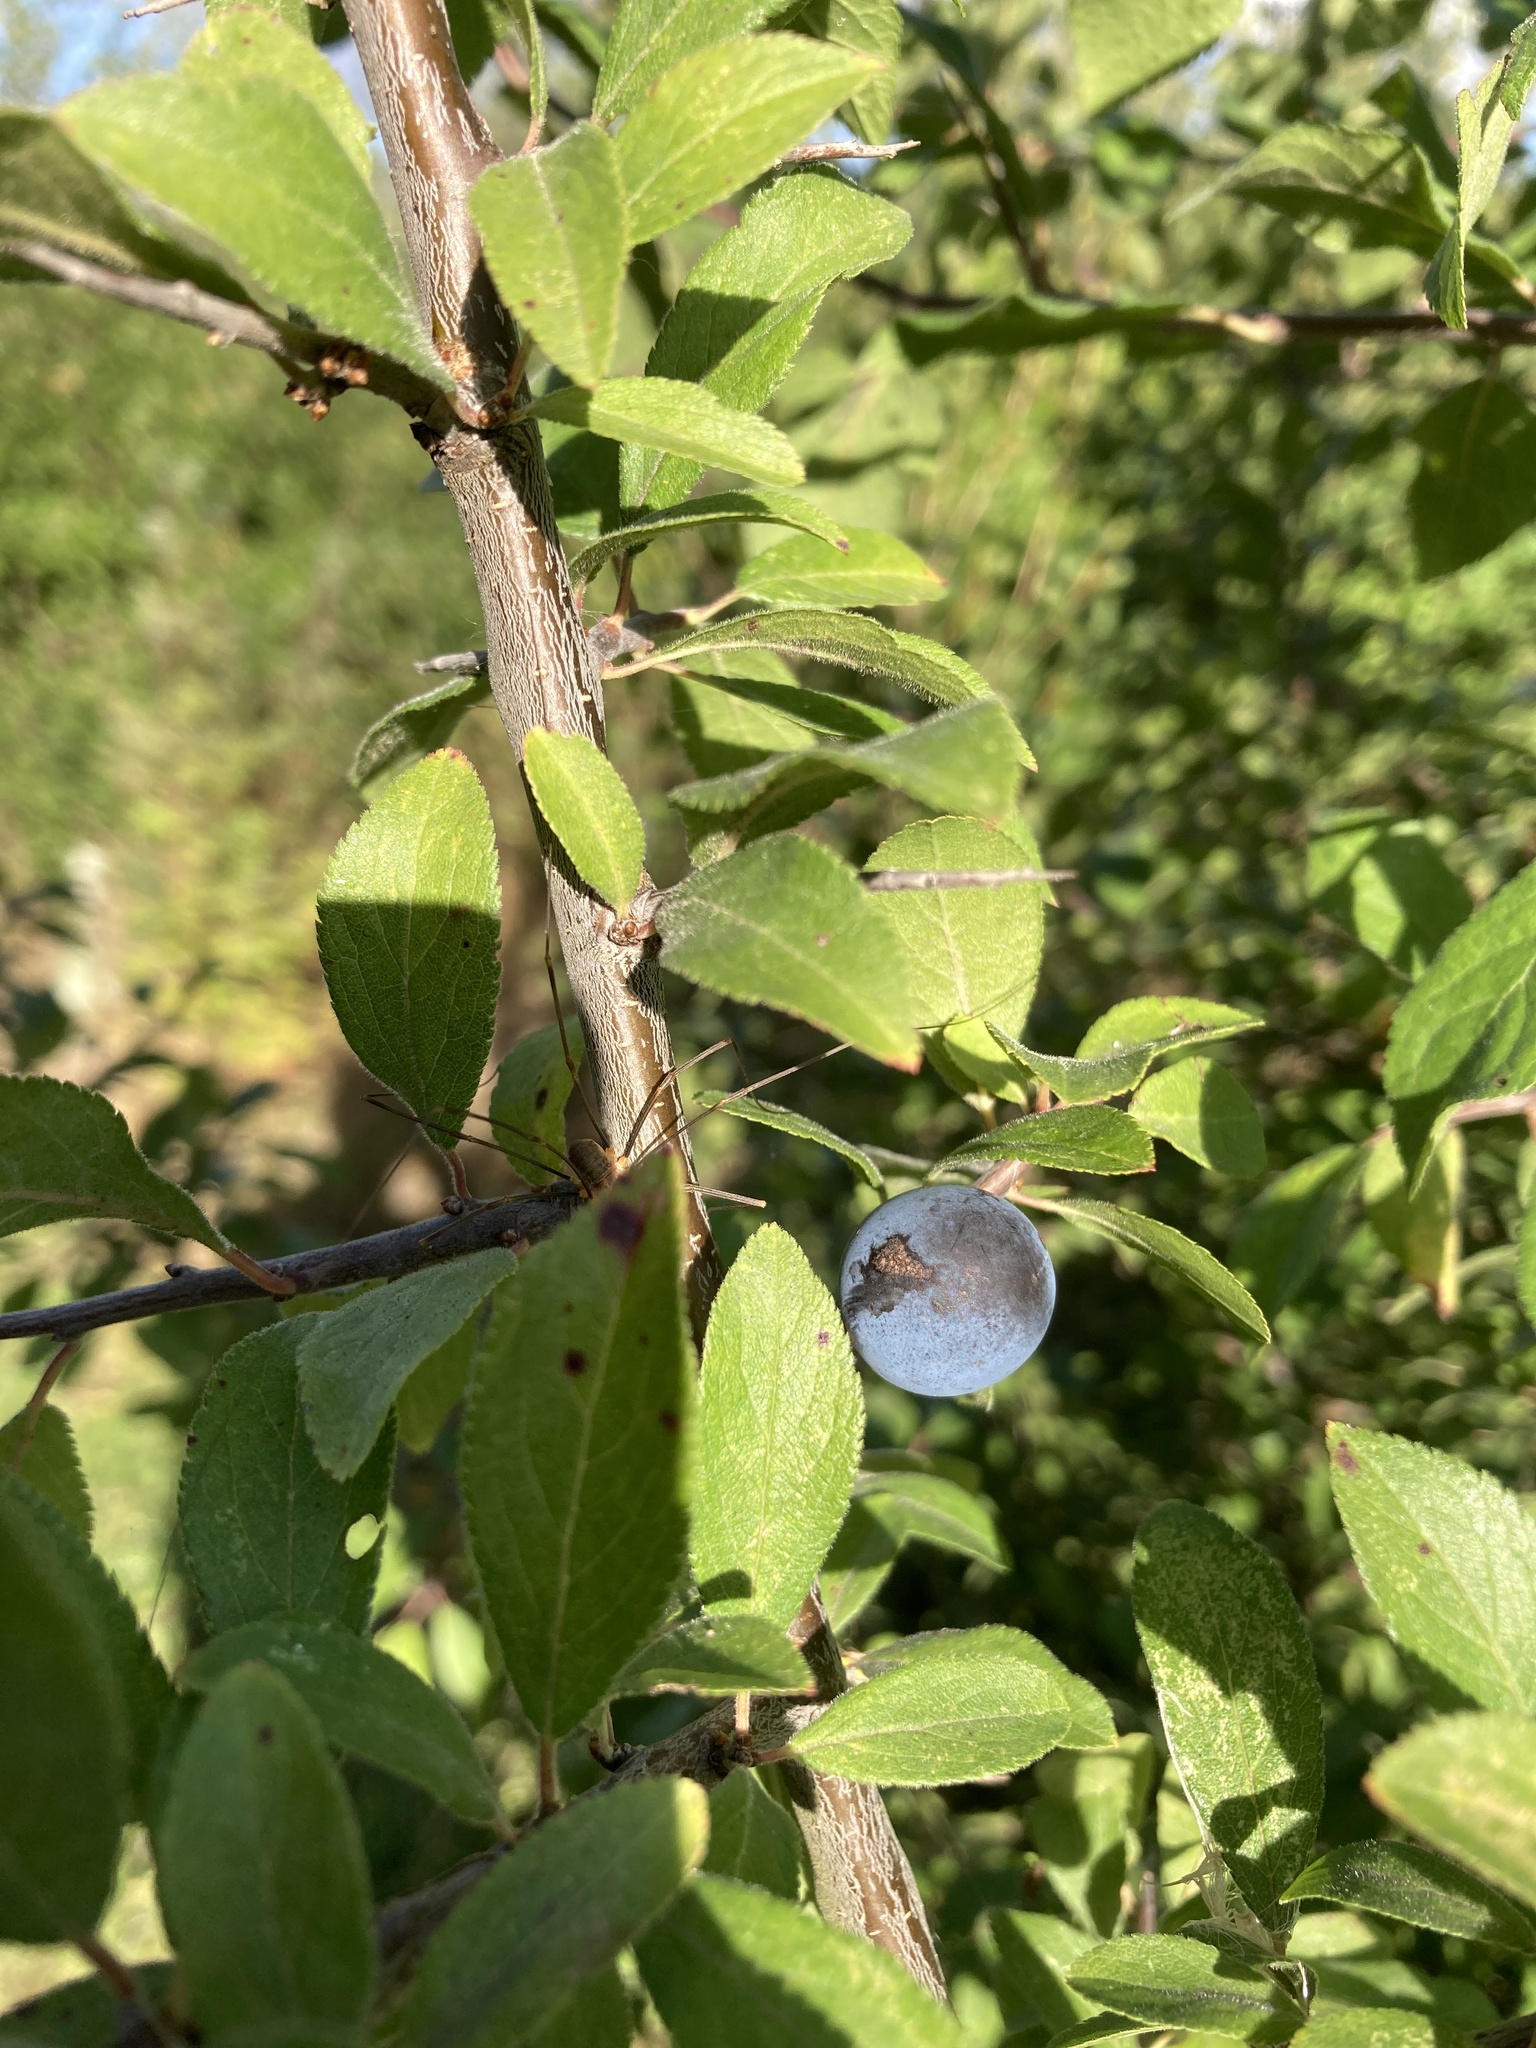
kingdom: Plantae
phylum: Tracheophyta
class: Magnoliopsida
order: Rosales
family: Rosaceae
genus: Prunus
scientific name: Prunus spinosa
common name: Blackthorn
